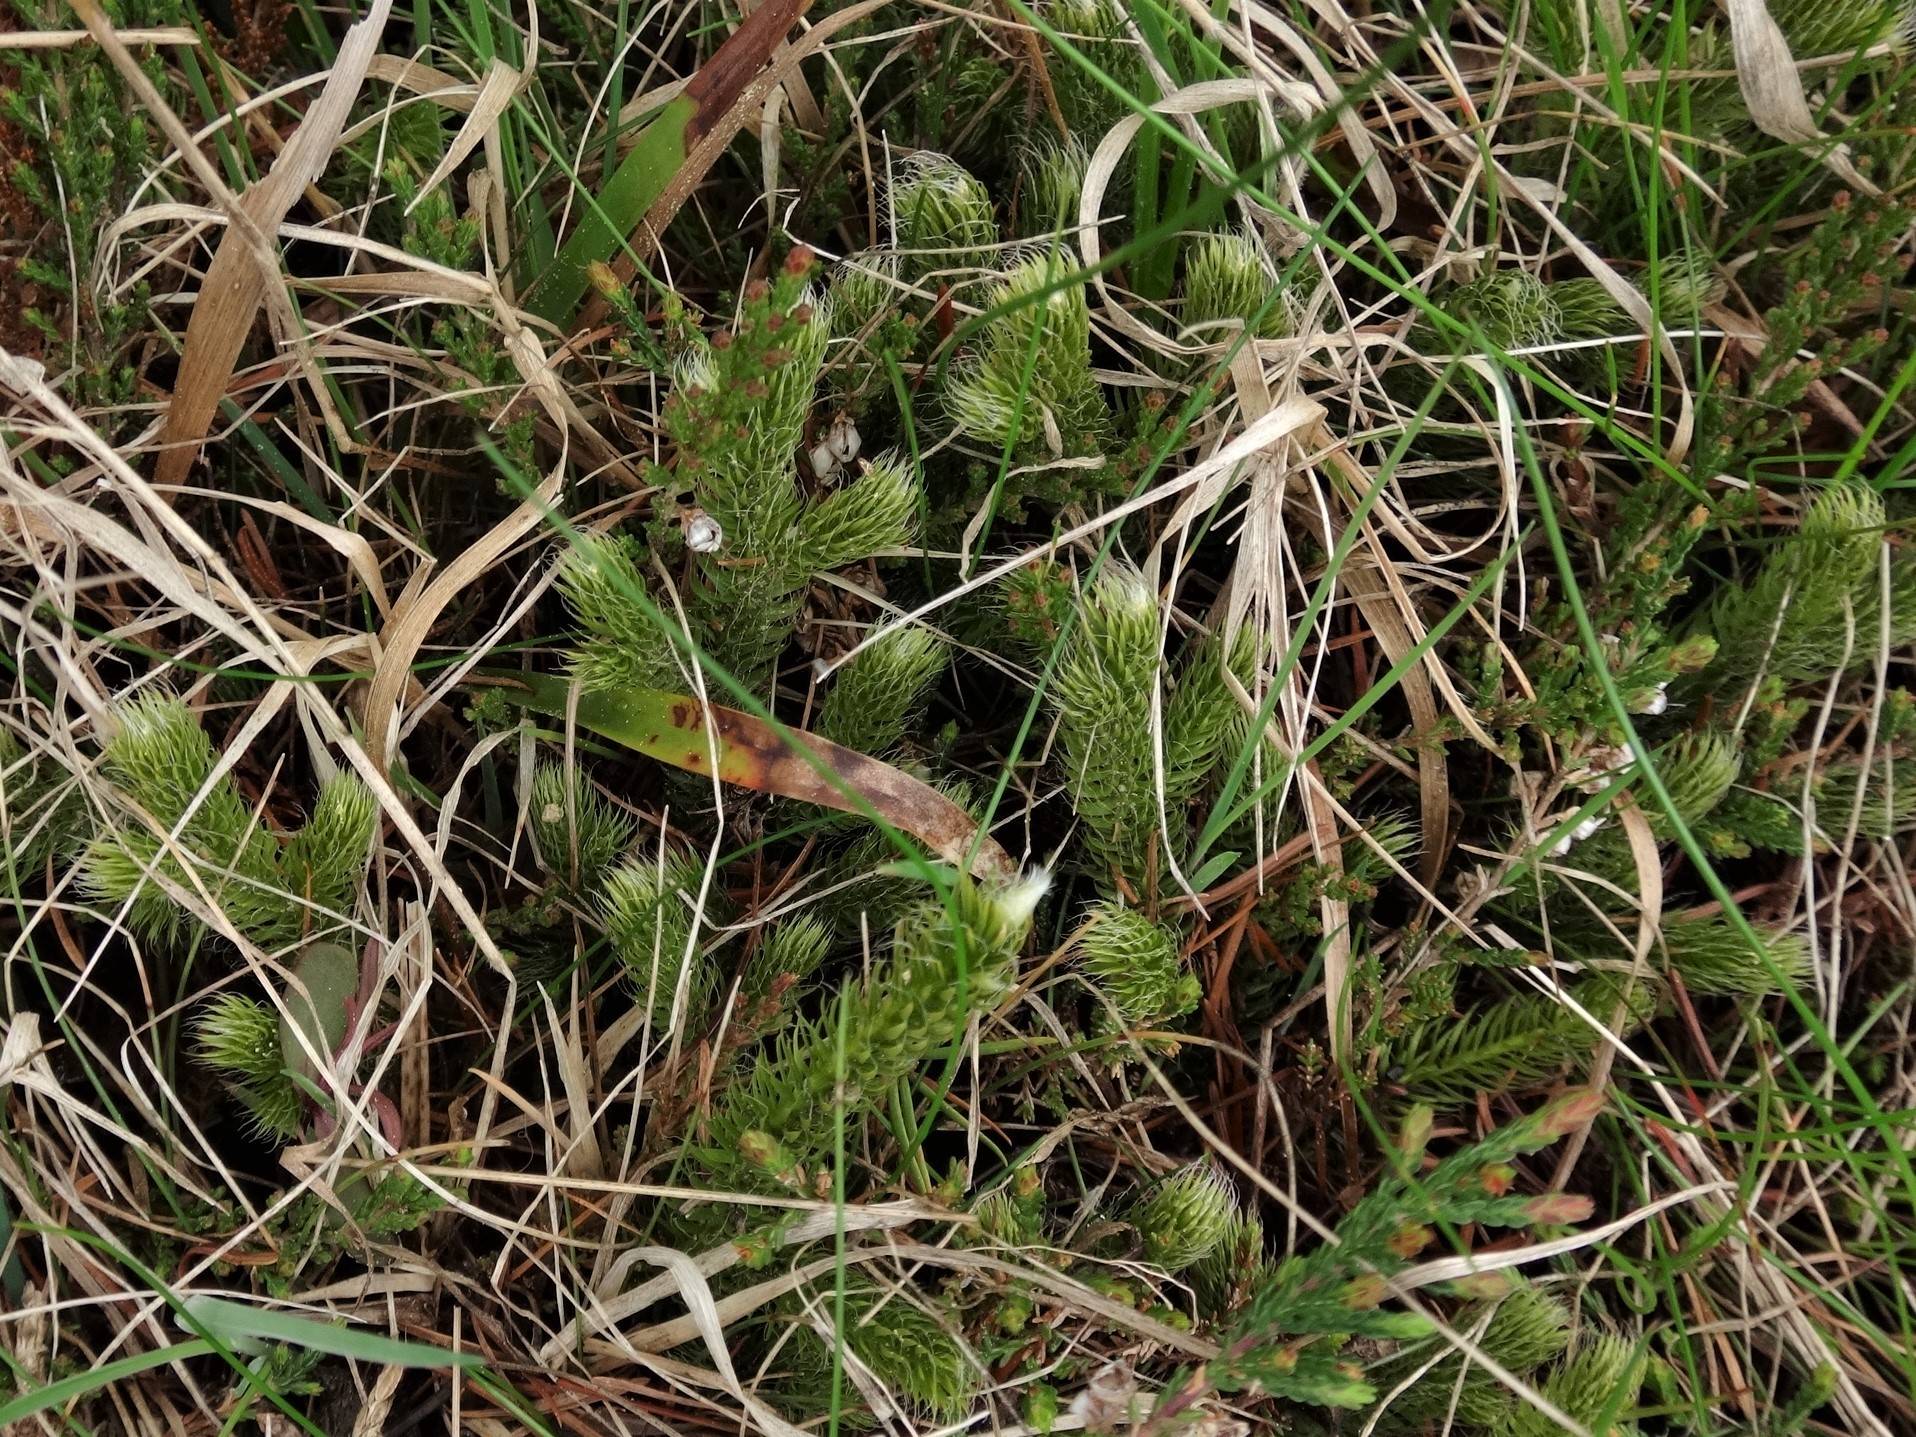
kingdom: Plantae
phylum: Tracheophyta
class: Lycopodiopsida
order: Lycopodiales
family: Lycopodiaceae
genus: Lycopodium
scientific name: Lycopodium clavatum
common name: Stag's-horn clubmoss
